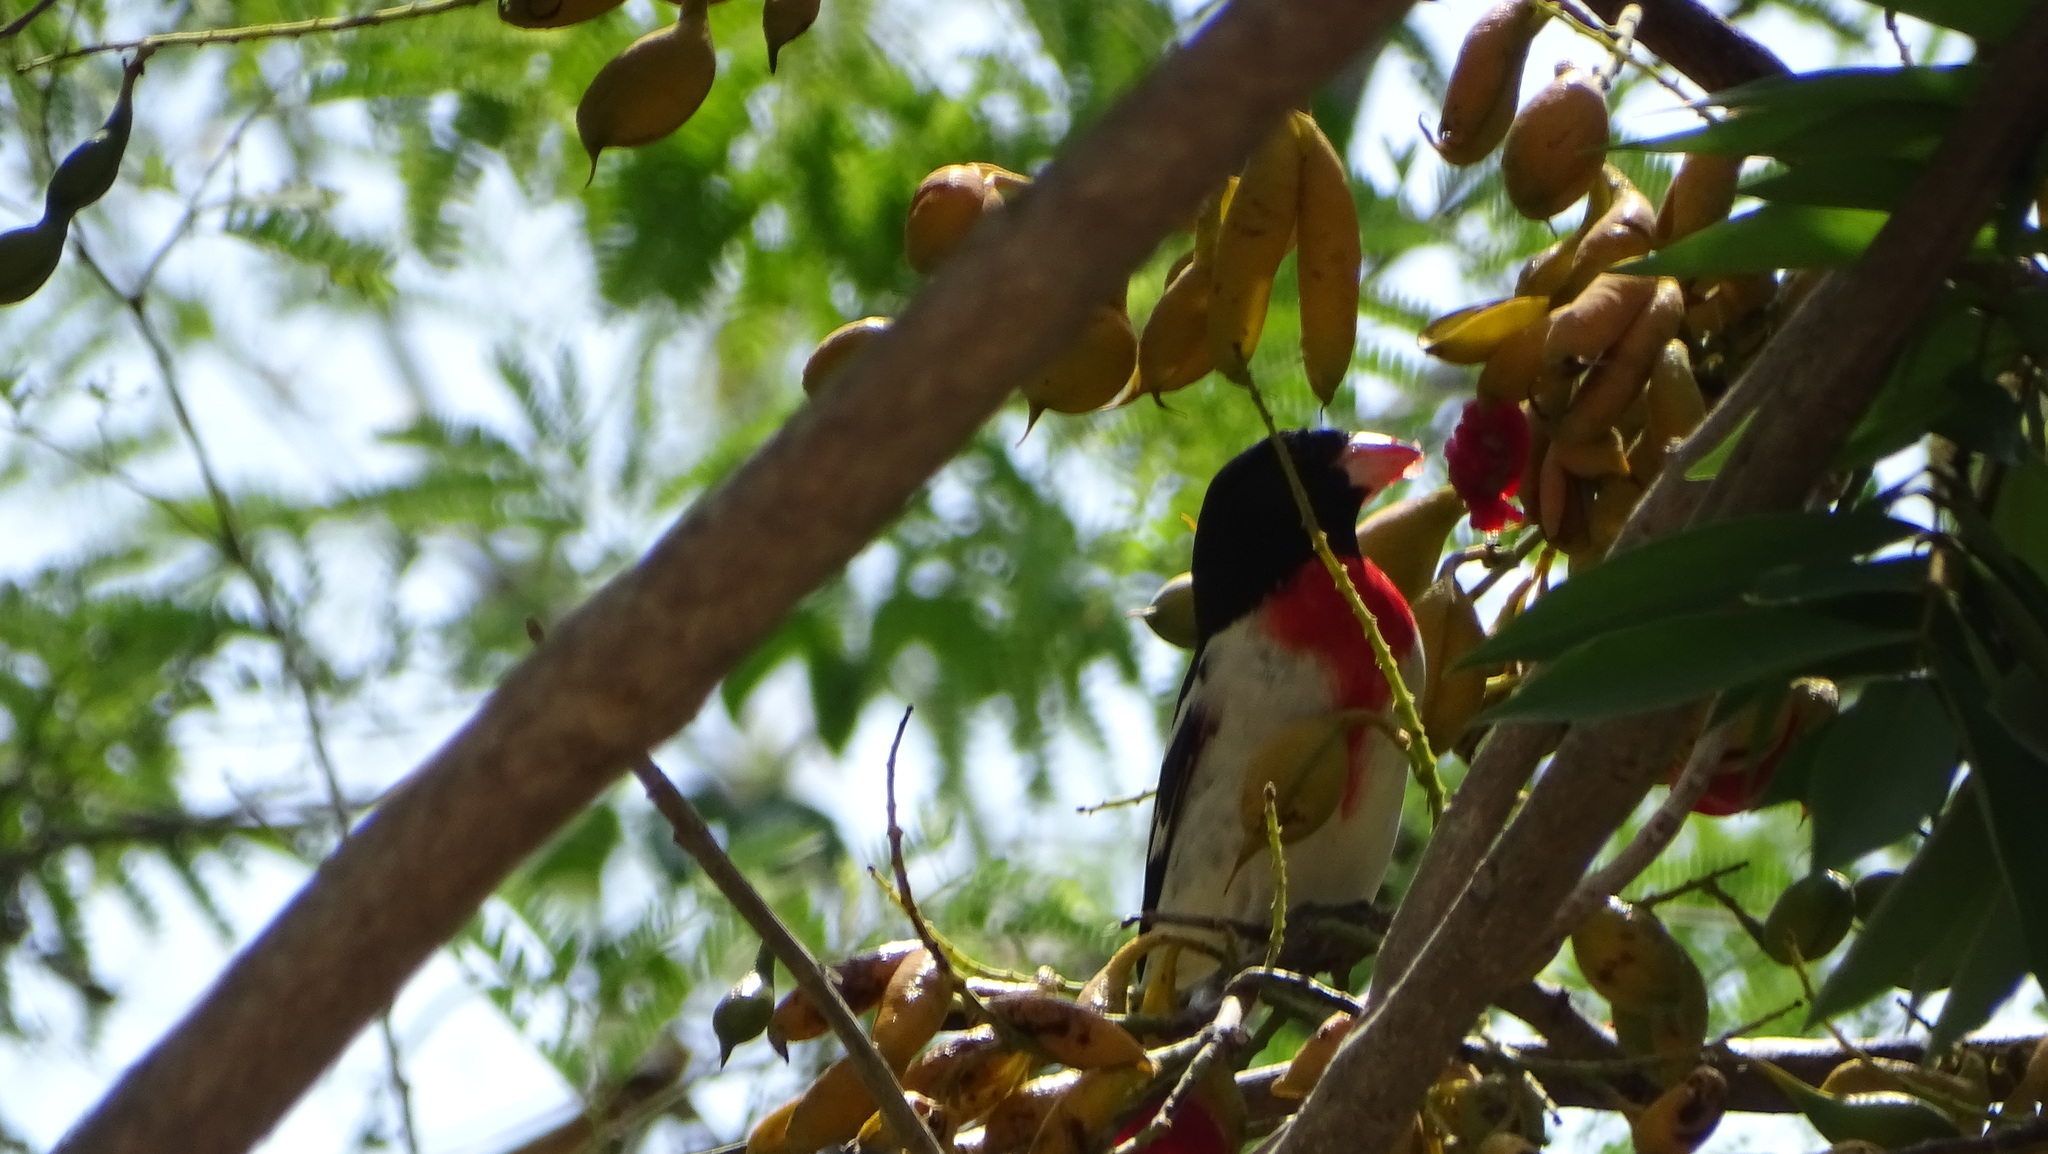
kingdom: Animalia
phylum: Chordata
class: Aves
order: Passeriformes
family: Cardinalidae
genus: Pheucticus
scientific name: Pheucticus ludovicianus
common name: Rose-breasted grosbeak
